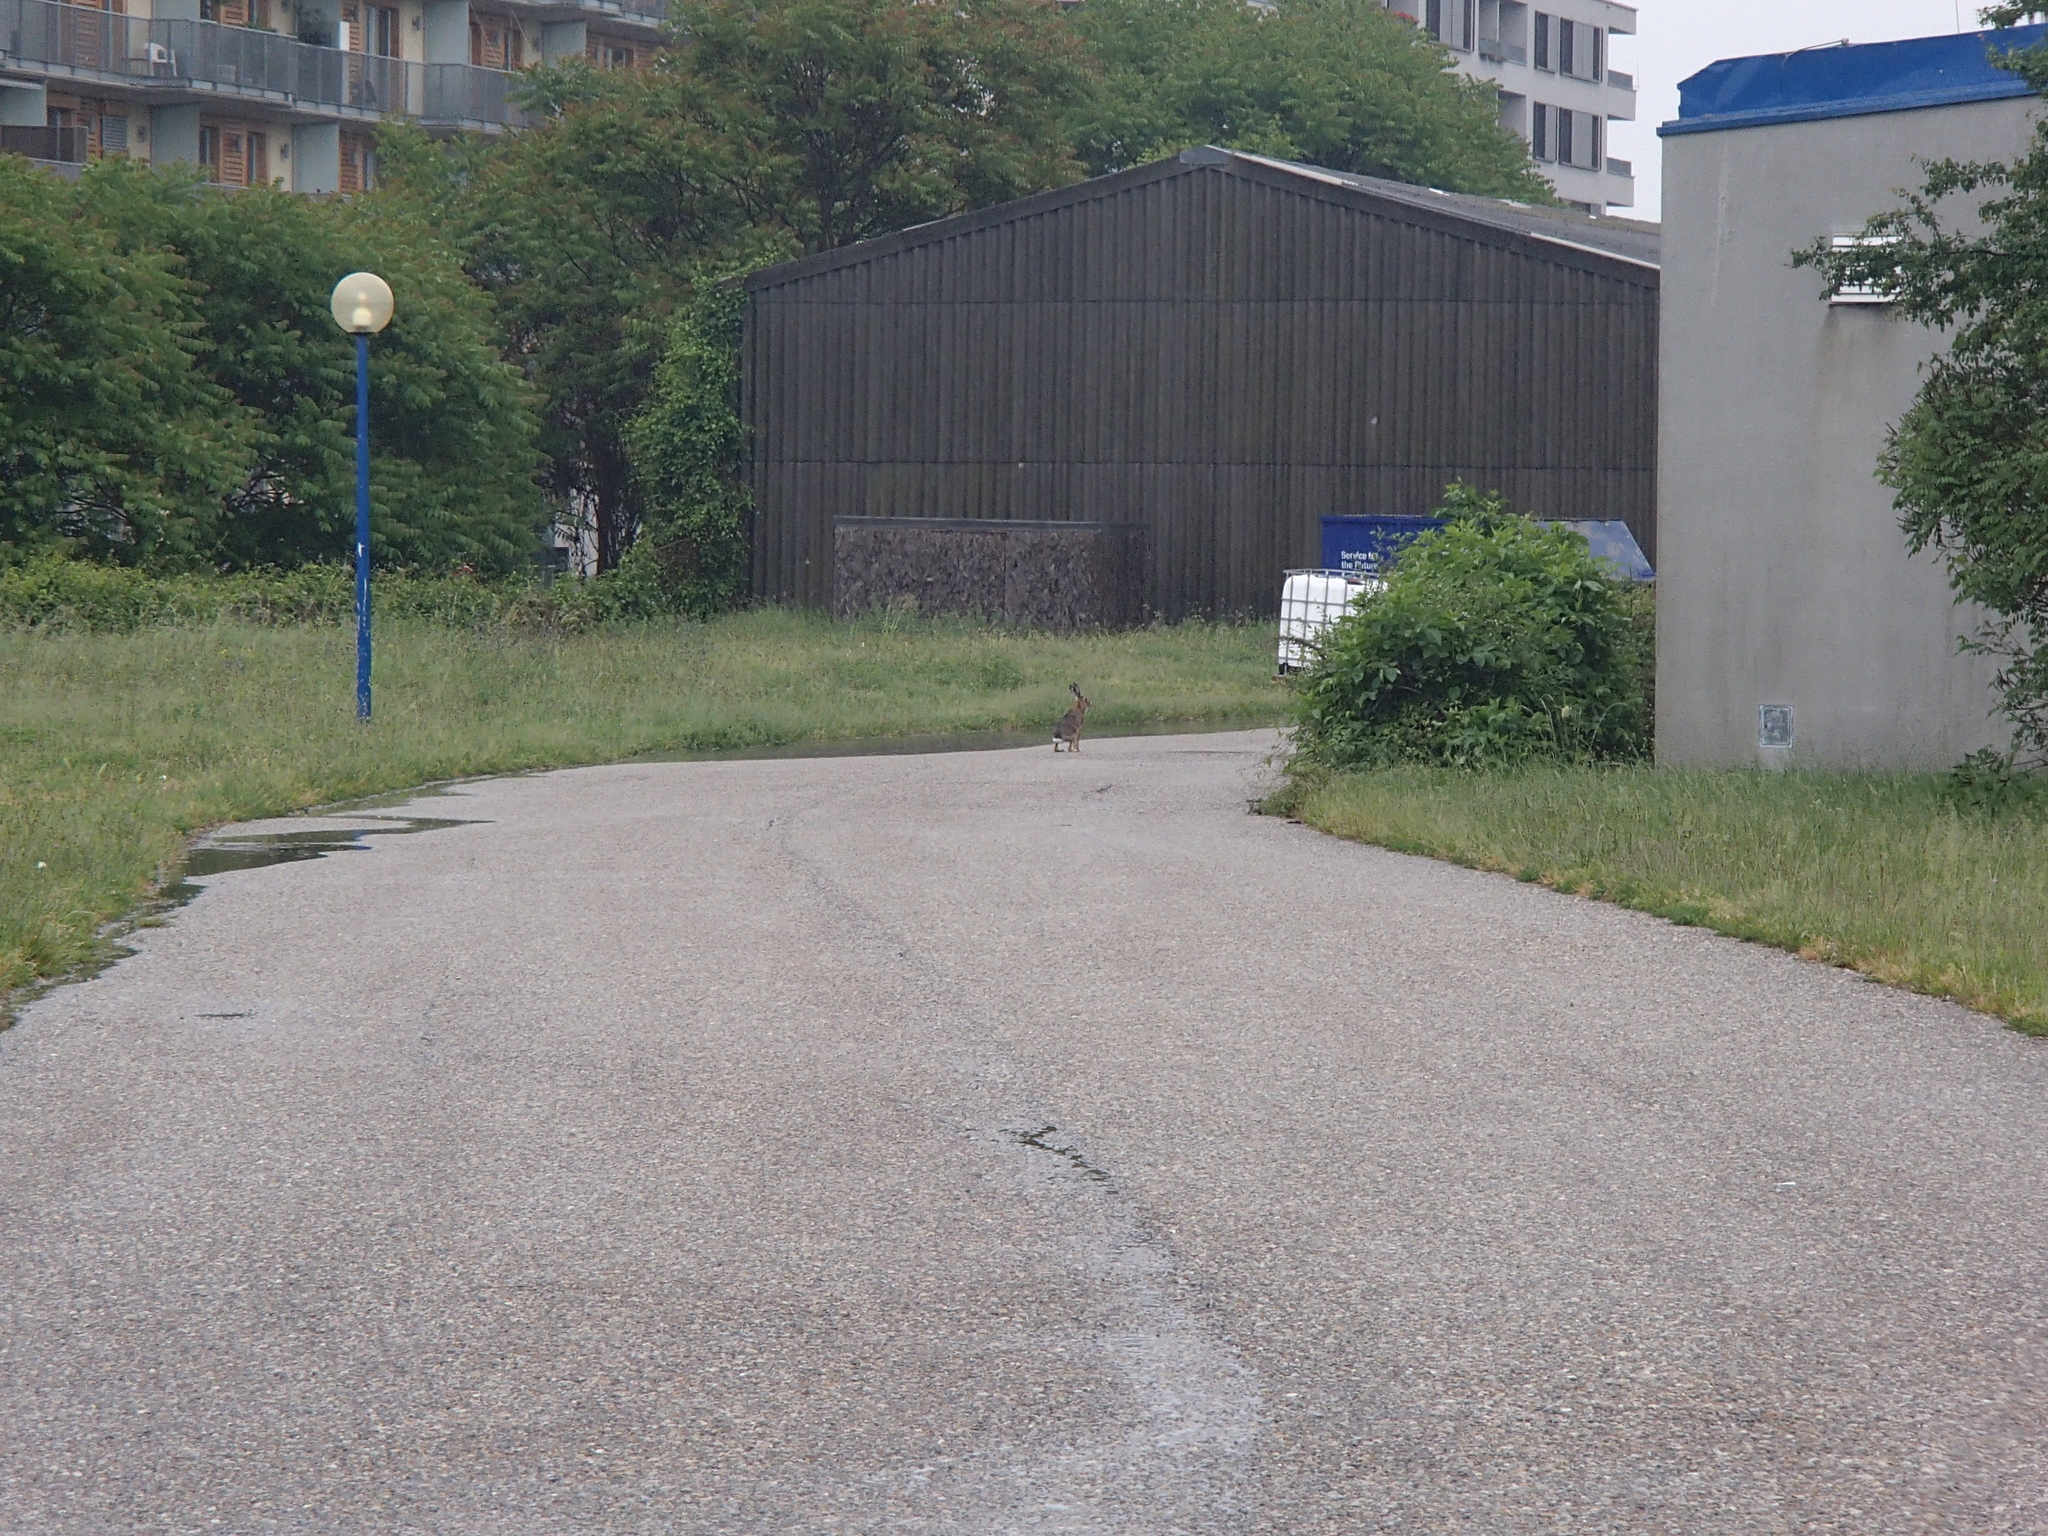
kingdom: Animalia
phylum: Chordata
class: Mammalia
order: Lagomorpha
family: Leporidae
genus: Lepus
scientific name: Lepus europaeus
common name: European hare
